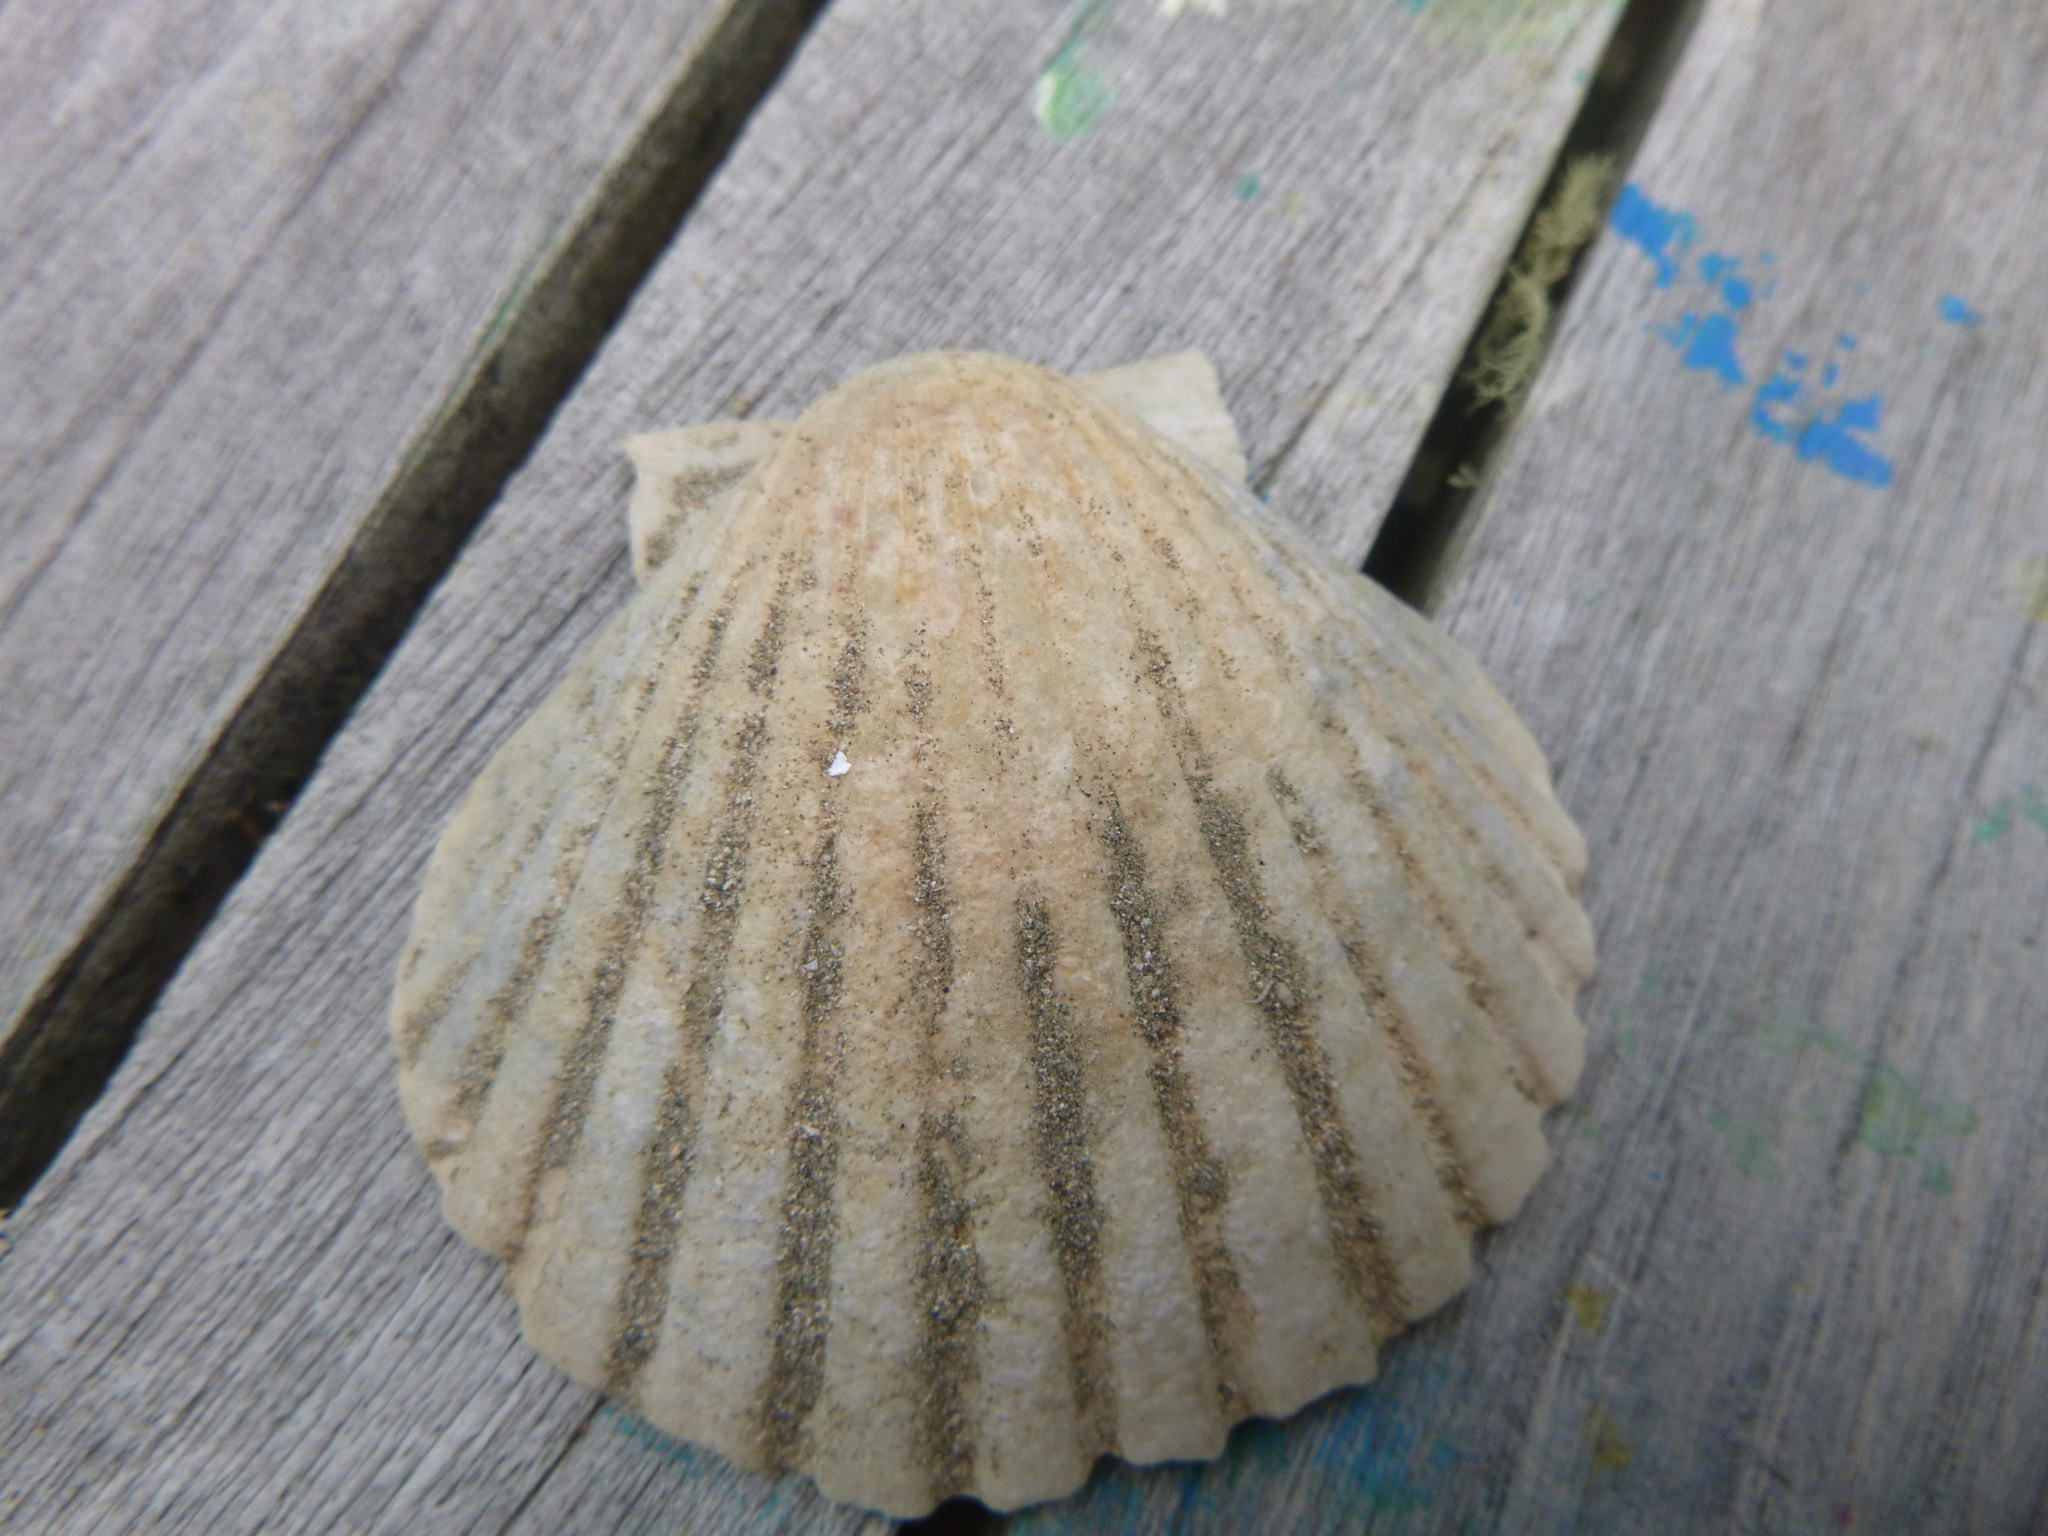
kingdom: Animalia
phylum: Mollusca
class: Bivalvia
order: Pectinida
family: Pectinidae
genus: Pecten
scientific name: Pecten novaezelandiae
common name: New zealand scallop
